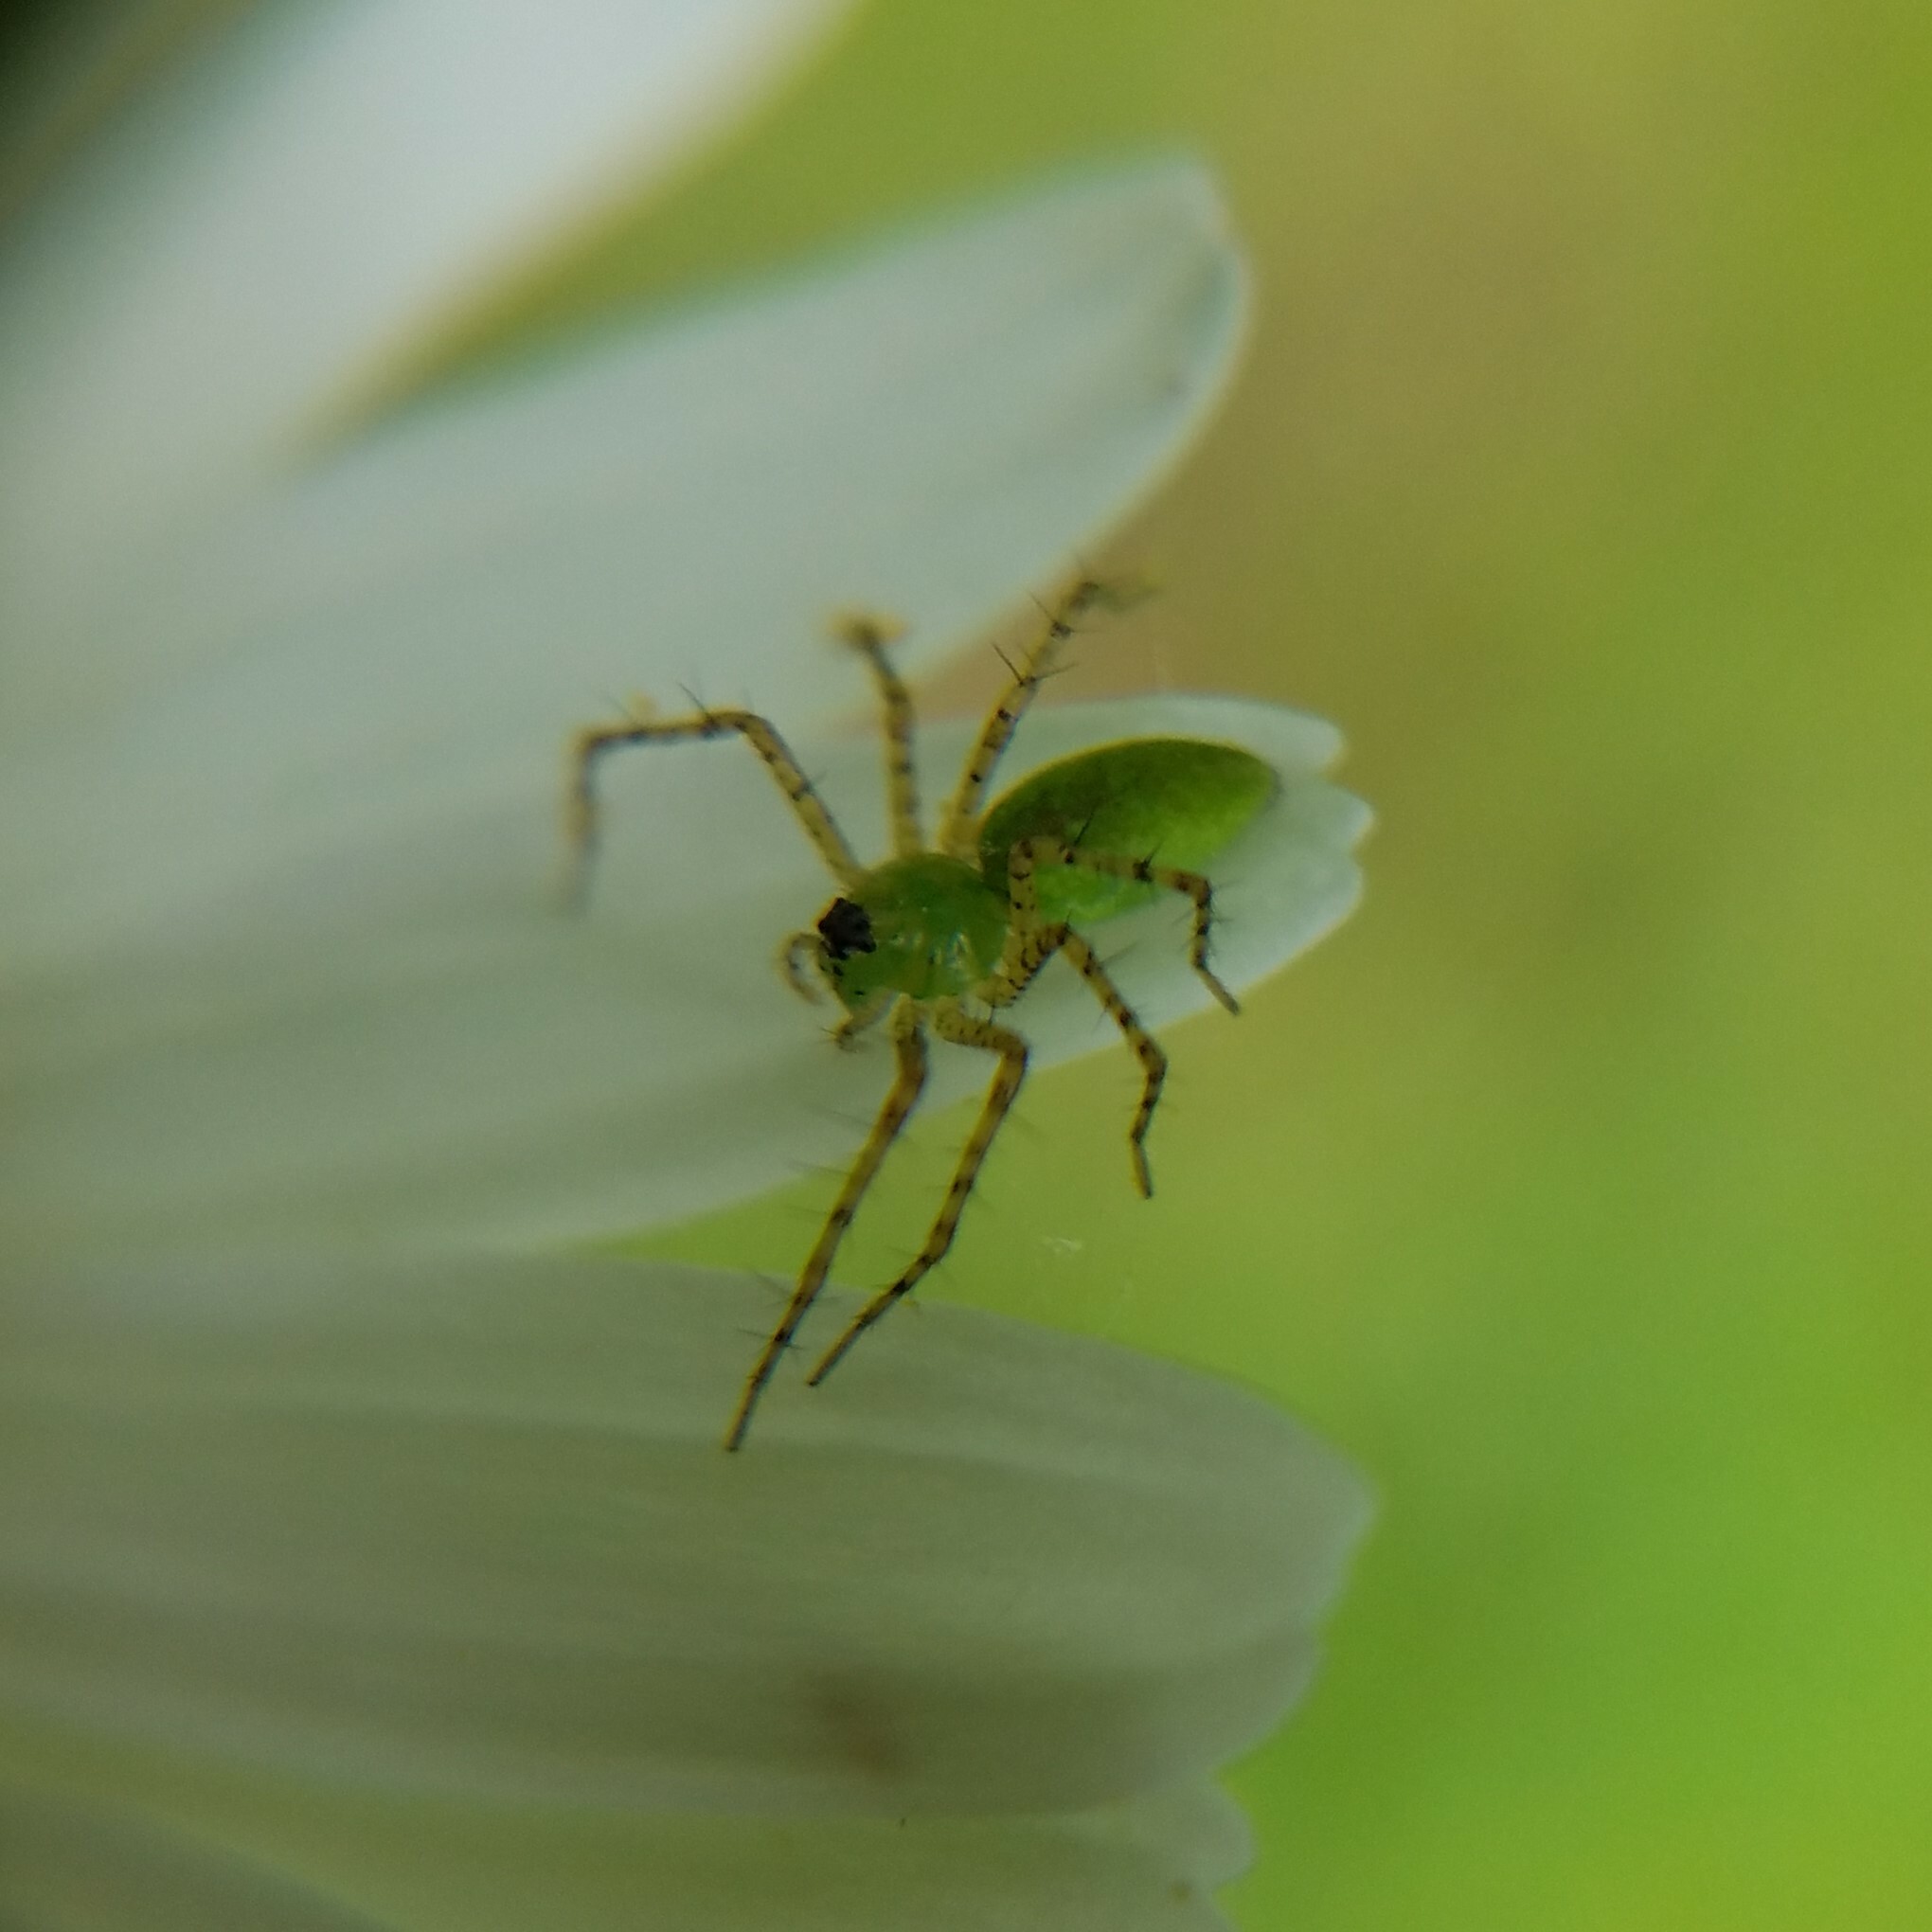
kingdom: Animalia
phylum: Arthropoda
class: Arachnida
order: Araneae
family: Oxyopidae
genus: Peucetia
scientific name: Peucetia viridans
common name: Lynx spiders
